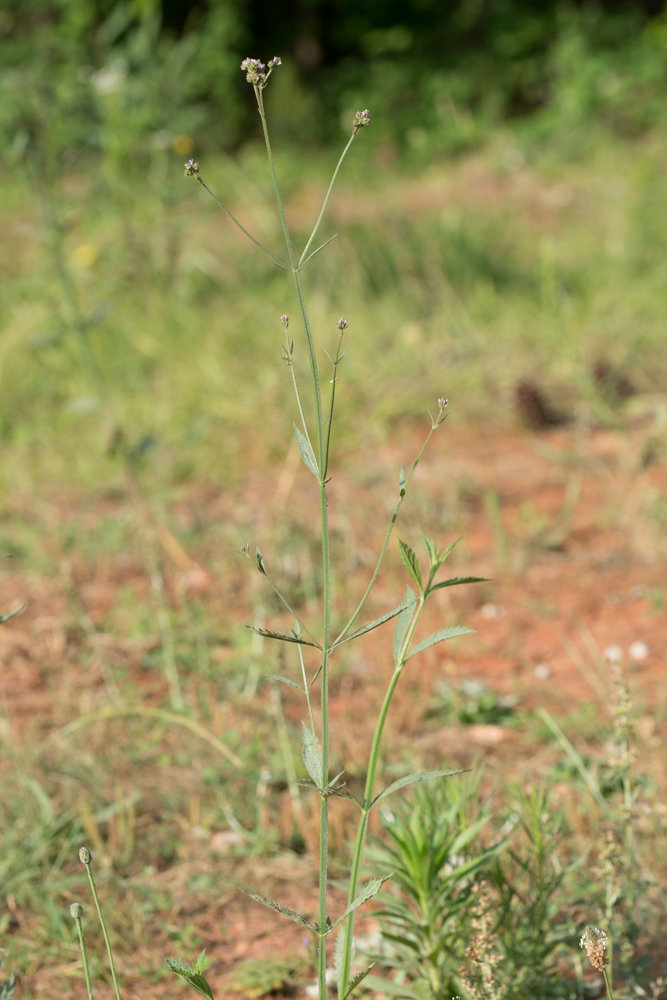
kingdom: Plantae
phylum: Tracheophyta
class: Magnoliopsida
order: Lamiales
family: Verbenaceae
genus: Verbena
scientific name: Verbena bonariensis
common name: Purpletop vervain
